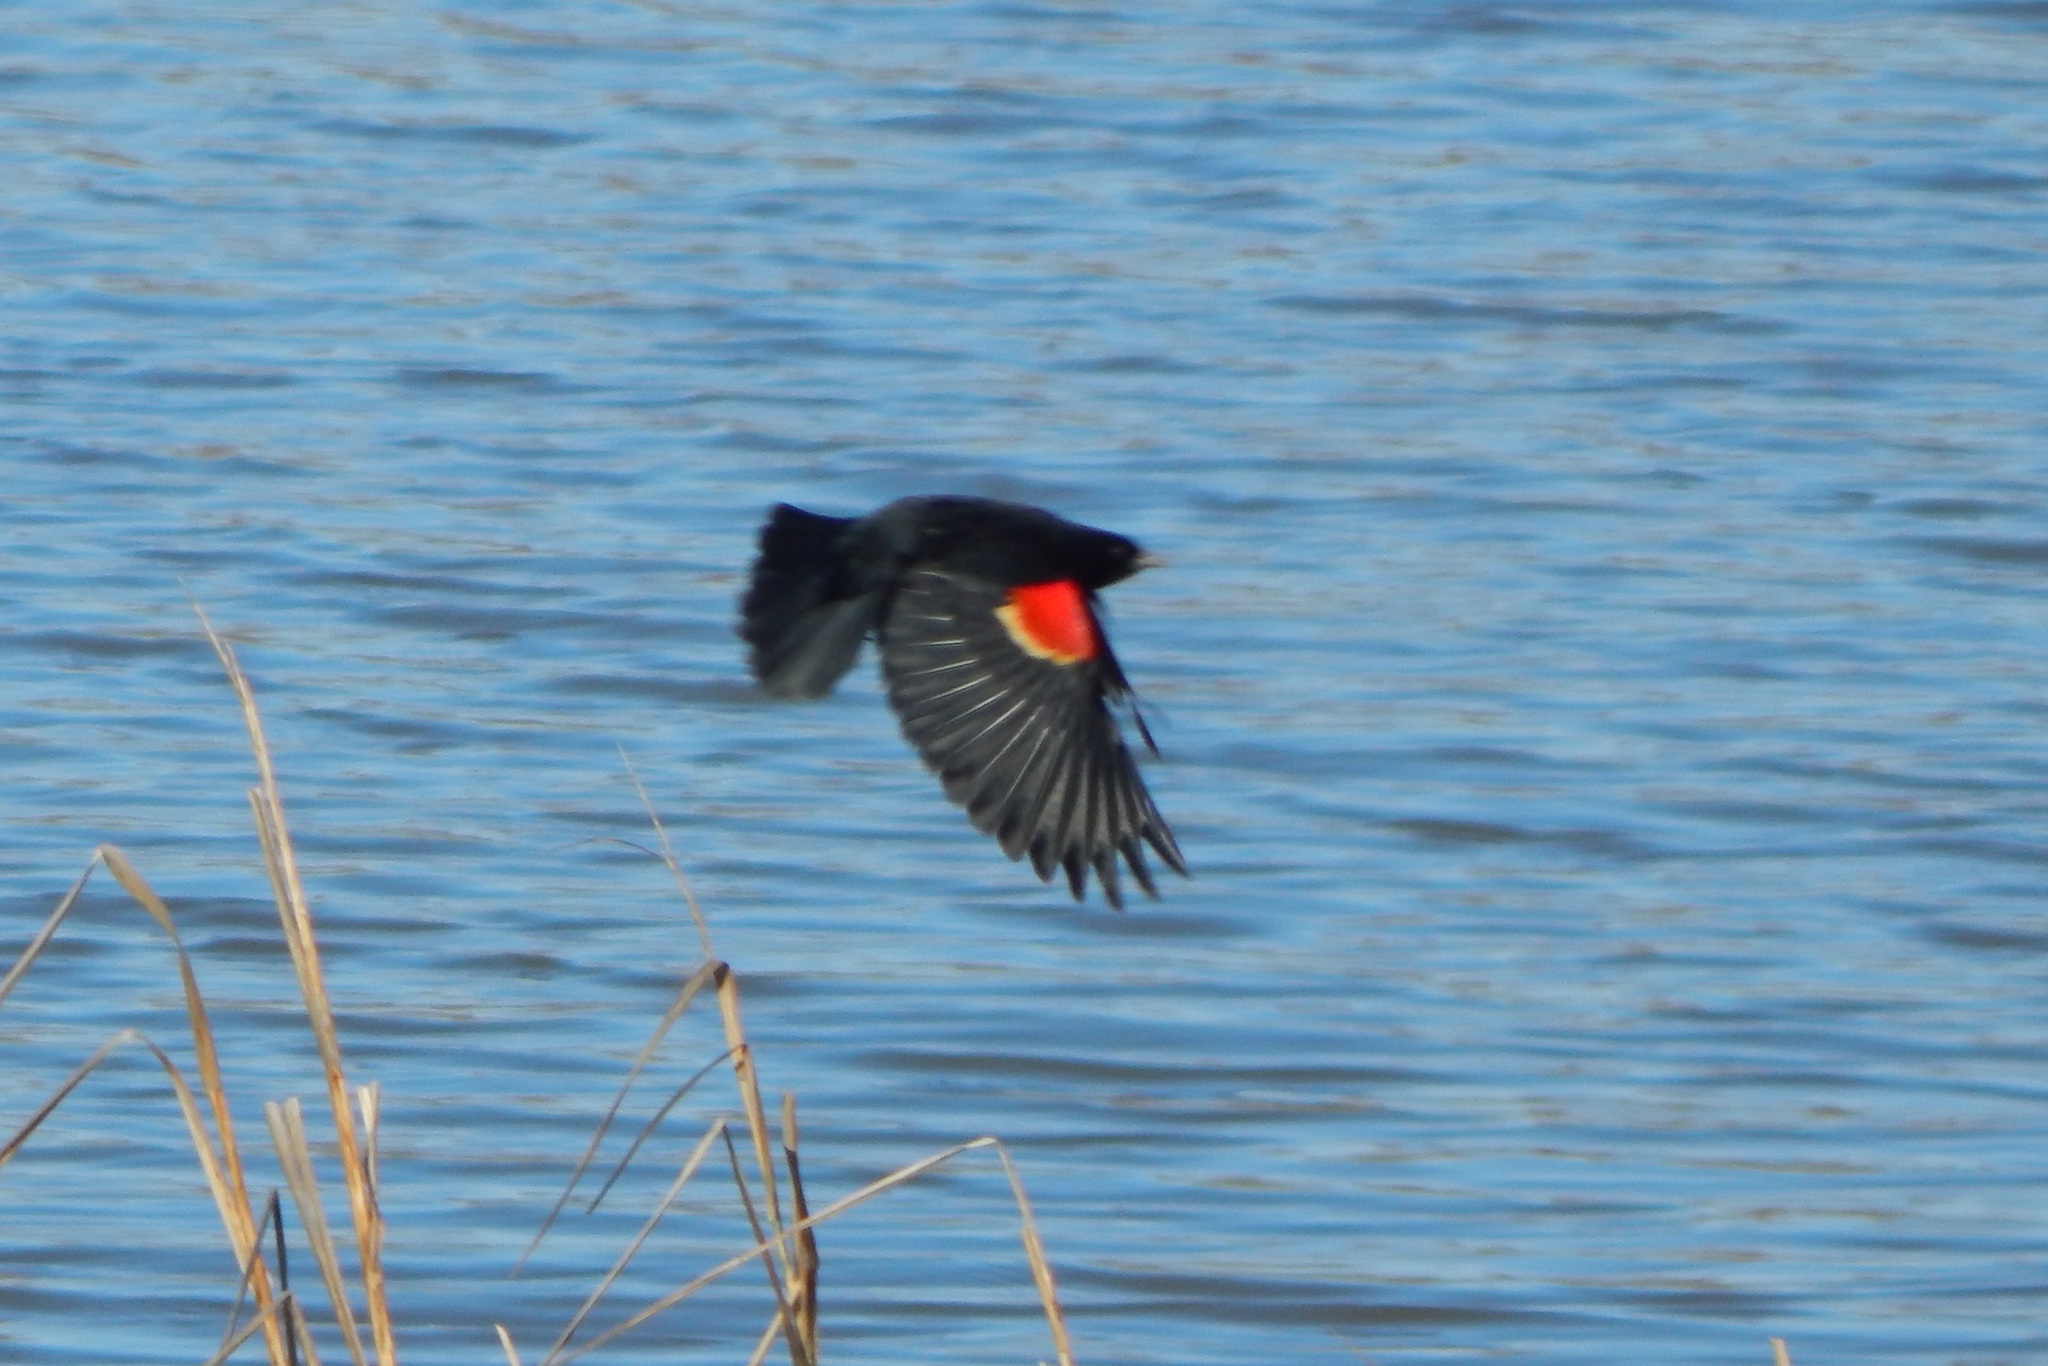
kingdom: Animalia
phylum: Chordata
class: Aves
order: Passeriformes
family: Icteridae
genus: Agelaius
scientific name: Agelaius phoeniceus
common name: Red-winged blackbird
